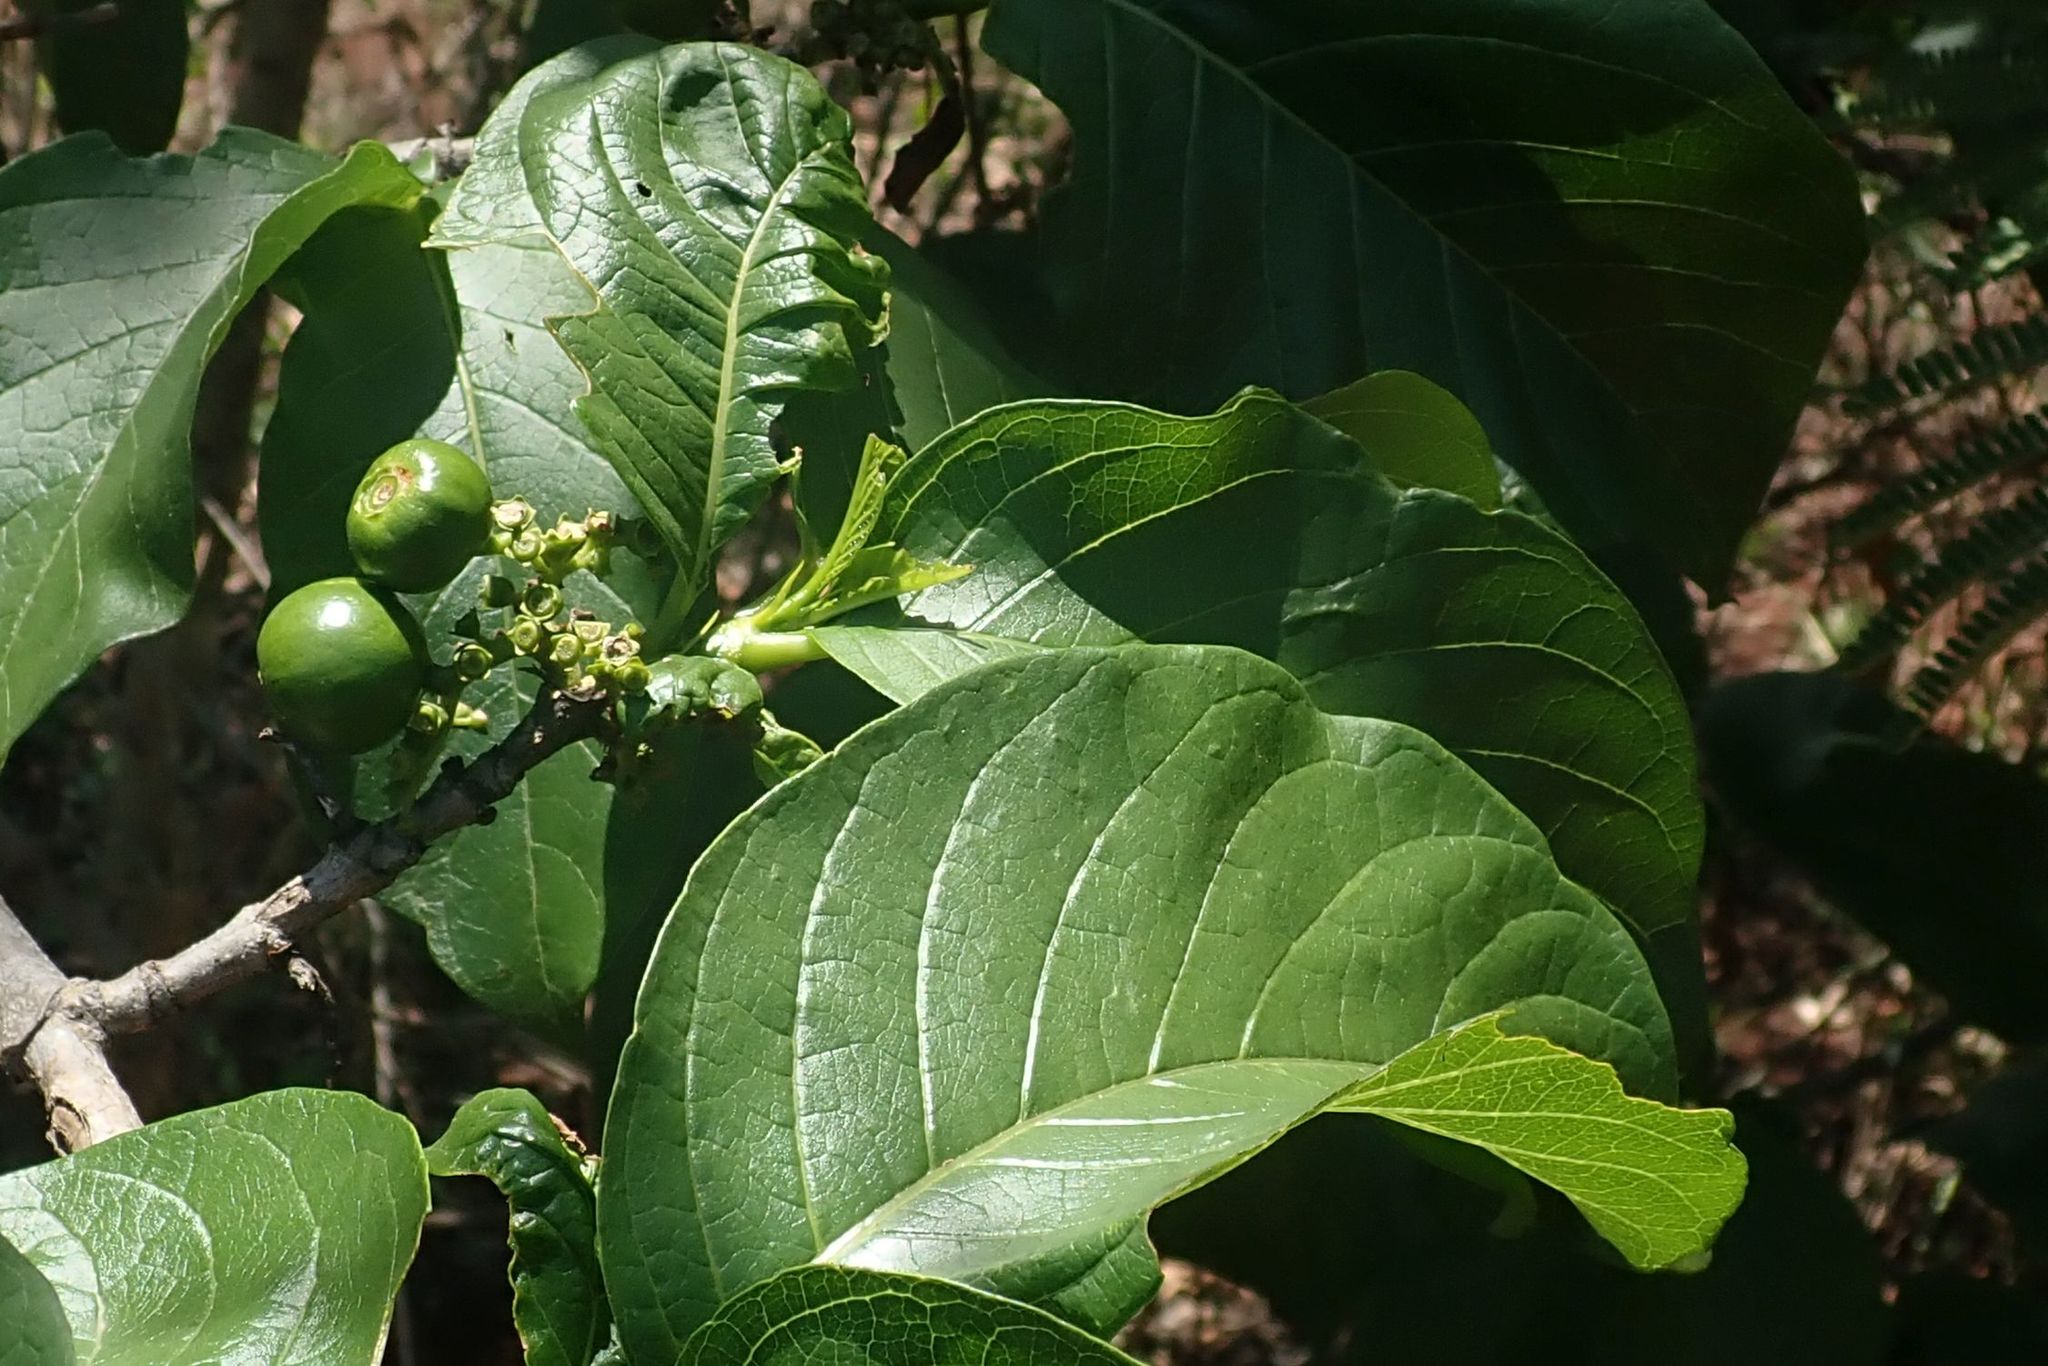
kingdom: Plantae
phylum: Tracheophyta
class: Magnoliopsida
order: Gentianales
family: Rubiaceae
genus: Vangueria
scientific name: Vangueria madagascariensis
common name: Smooth wild-medlar
